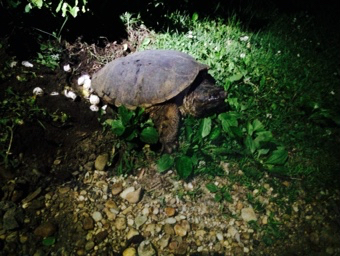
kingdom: Animalia
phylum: Chordata
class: Testudines
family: Chelydridae
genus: Chelydra
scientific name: Chelydra serpentina
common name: Common snapping turtle
